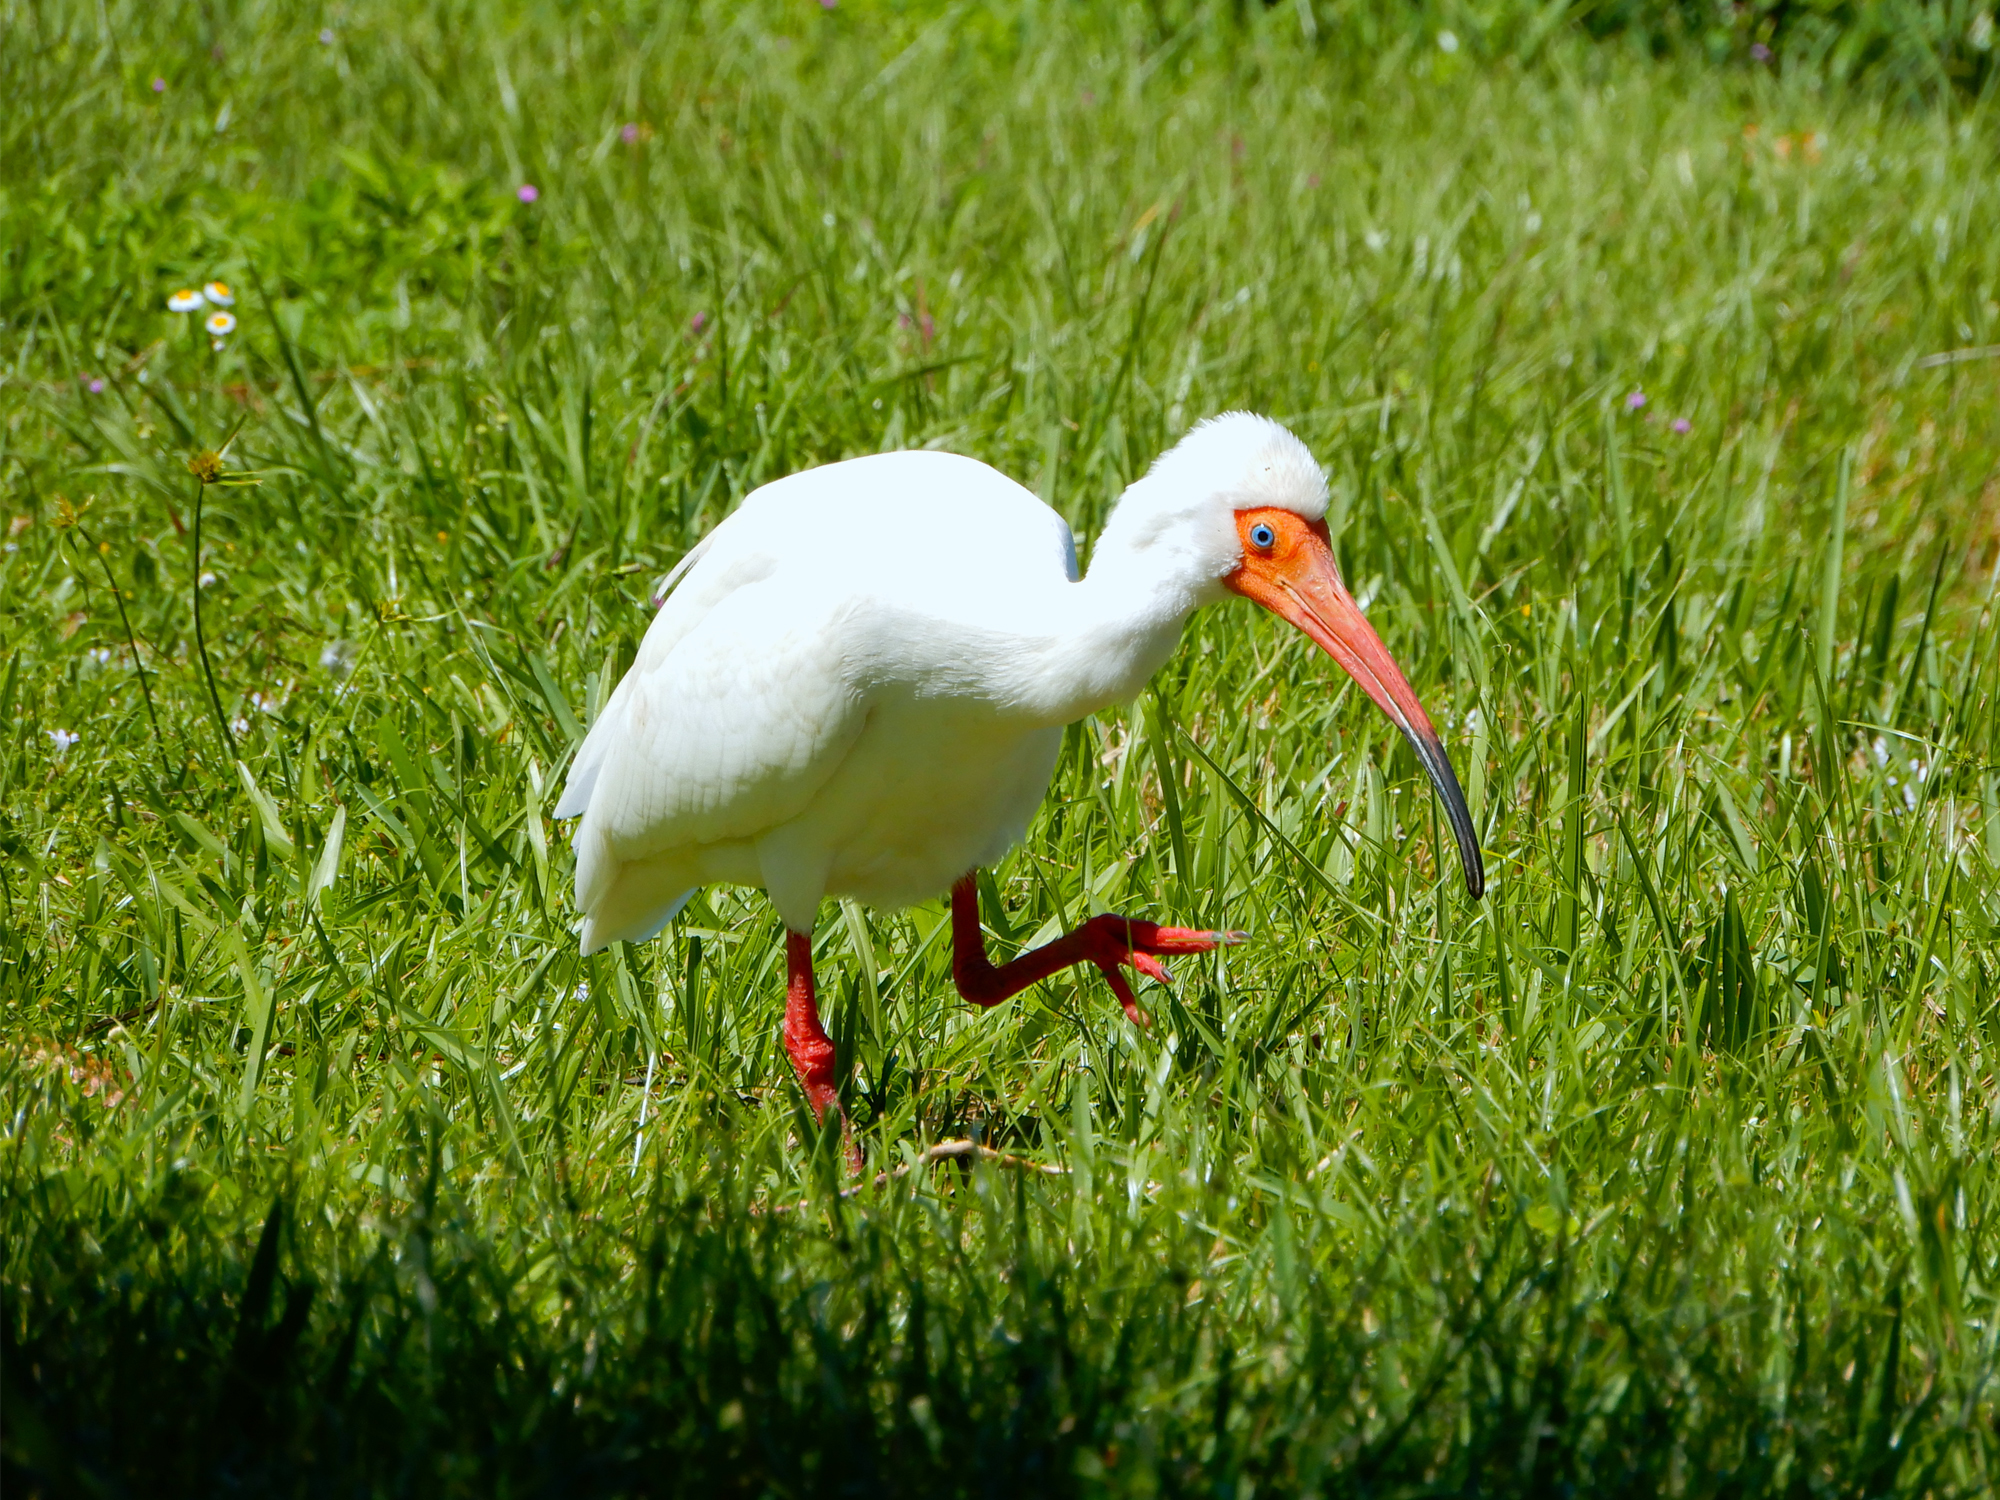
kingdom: Animalia
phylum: Chordata
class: Aves
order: Pelecaniformes
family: Threskiornithidae
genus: Eudocimus
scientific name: Eudocimus albus
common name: White ibis
